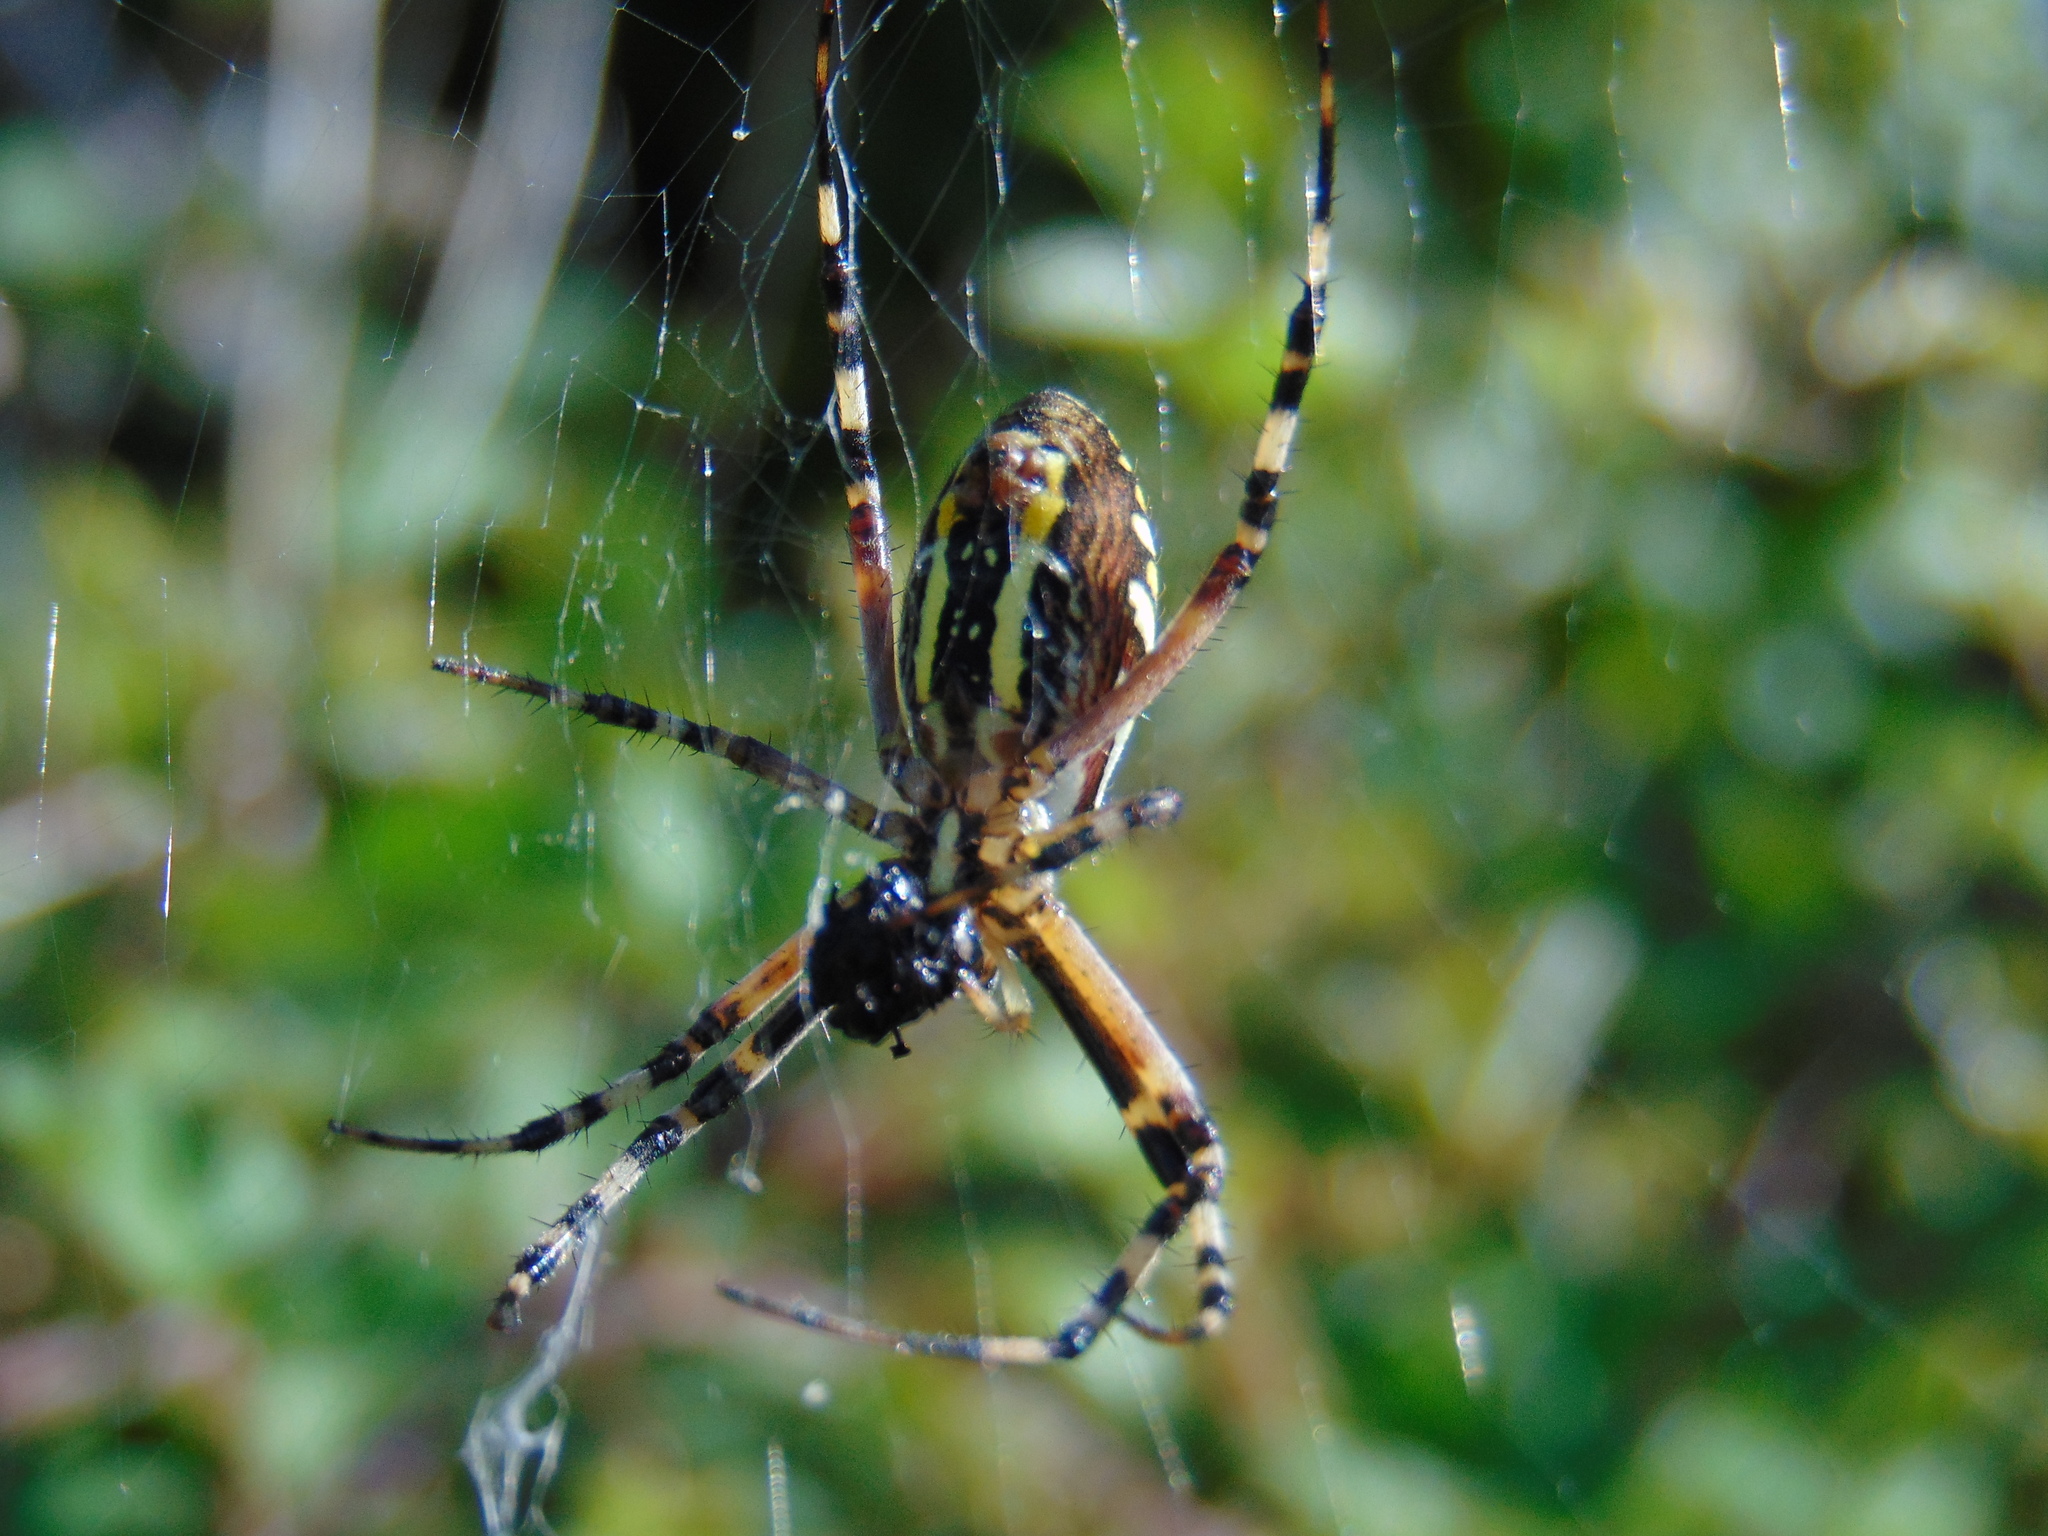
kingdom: Animalia
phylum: Arthropoda
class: Arachnida
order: Araneae
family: Araneidae
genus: Argiope
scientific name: Argiope bruennichi
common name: Wasp spider
